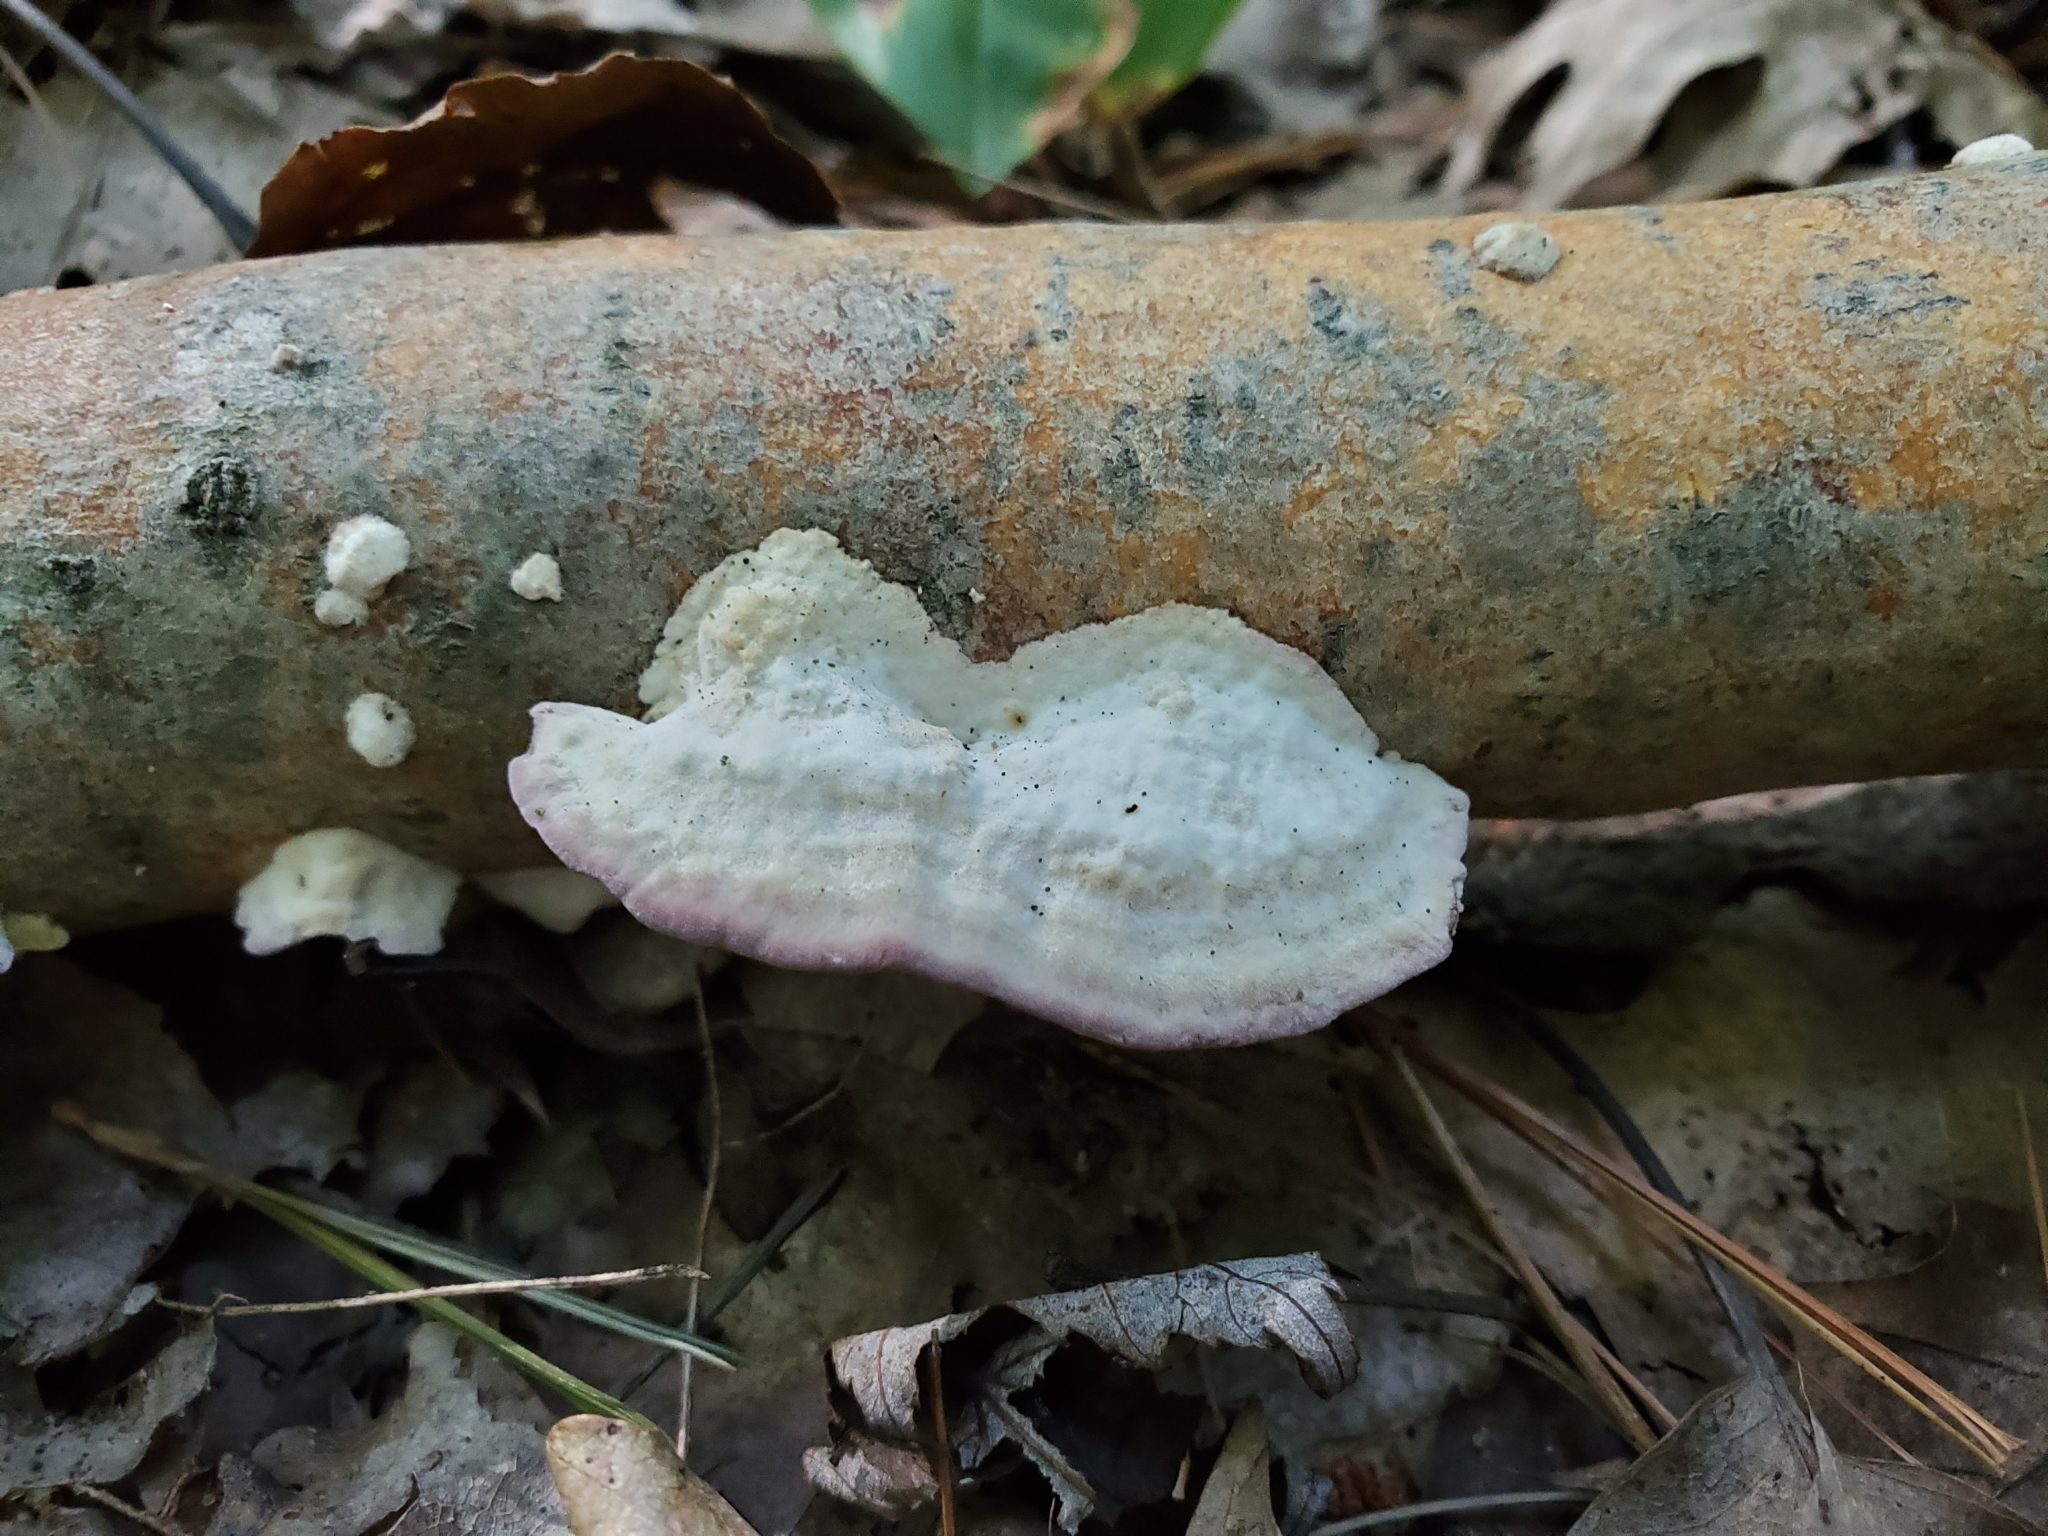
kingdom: Fungi
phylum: Basidiomycota
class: Agaricomycetes
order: Hymenochaetales
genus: Trichaptum
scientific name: Trichaptum biforme
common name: Violet-toothed polypore
